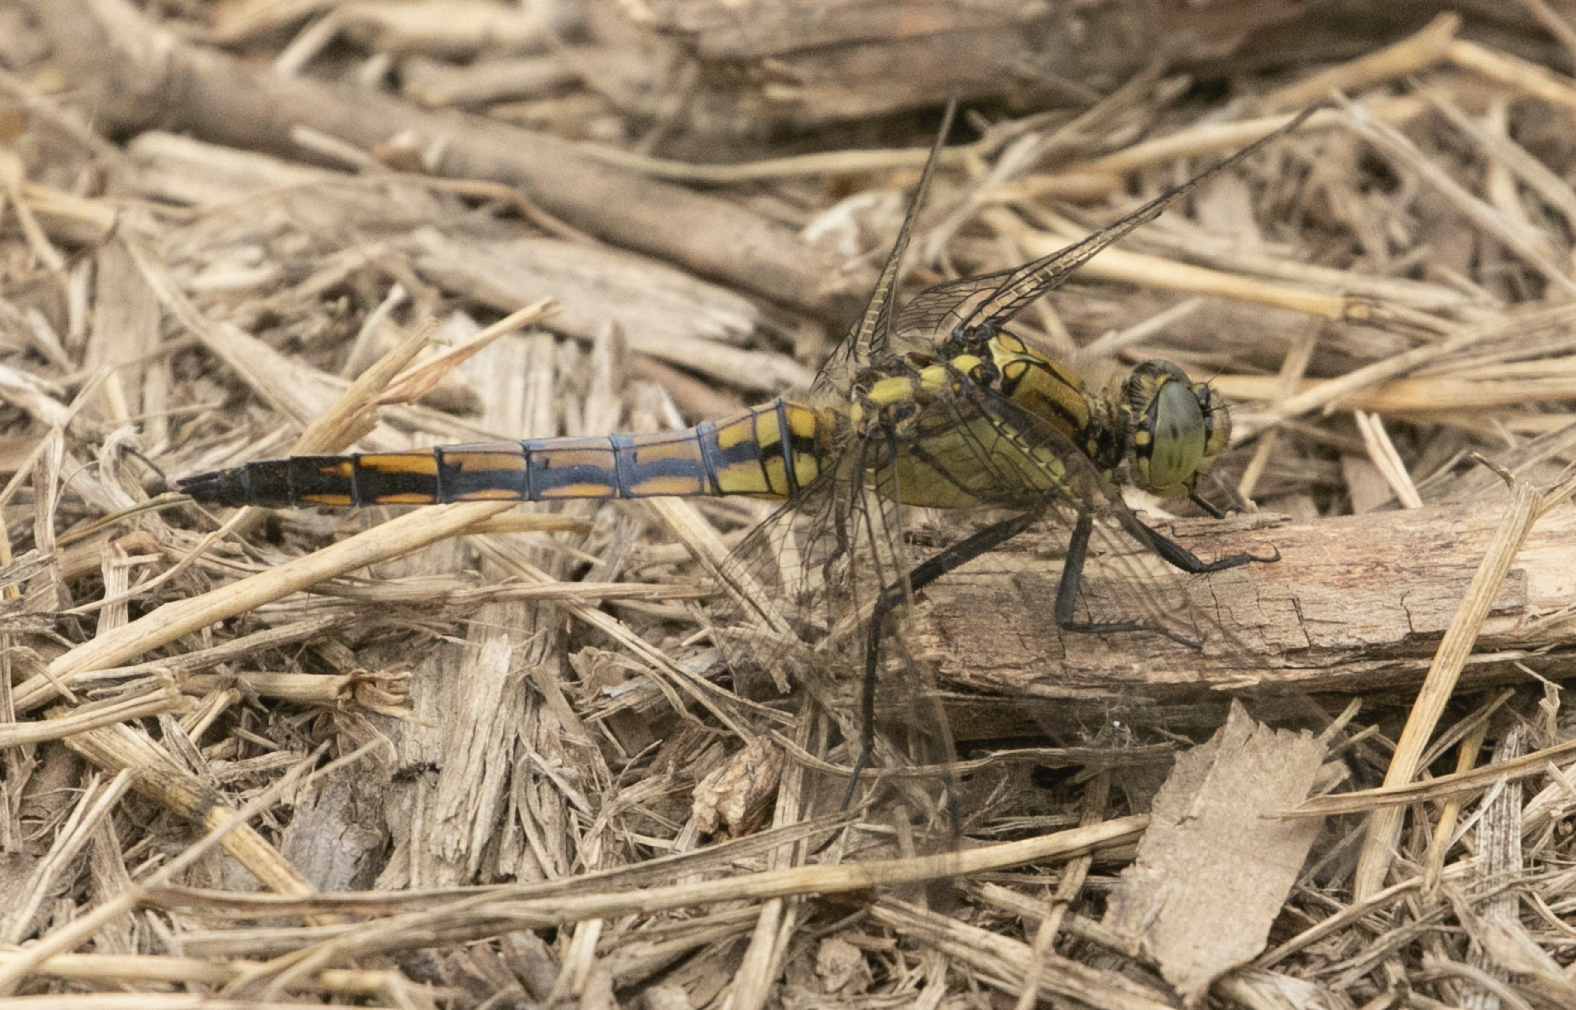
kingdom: Animalia
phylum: Arthropoda
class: Insecta
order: Odonata
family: Libellulidae
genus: Orthetrum
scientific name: Orthetrum cancellatum
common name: Black-tailed skimmer
